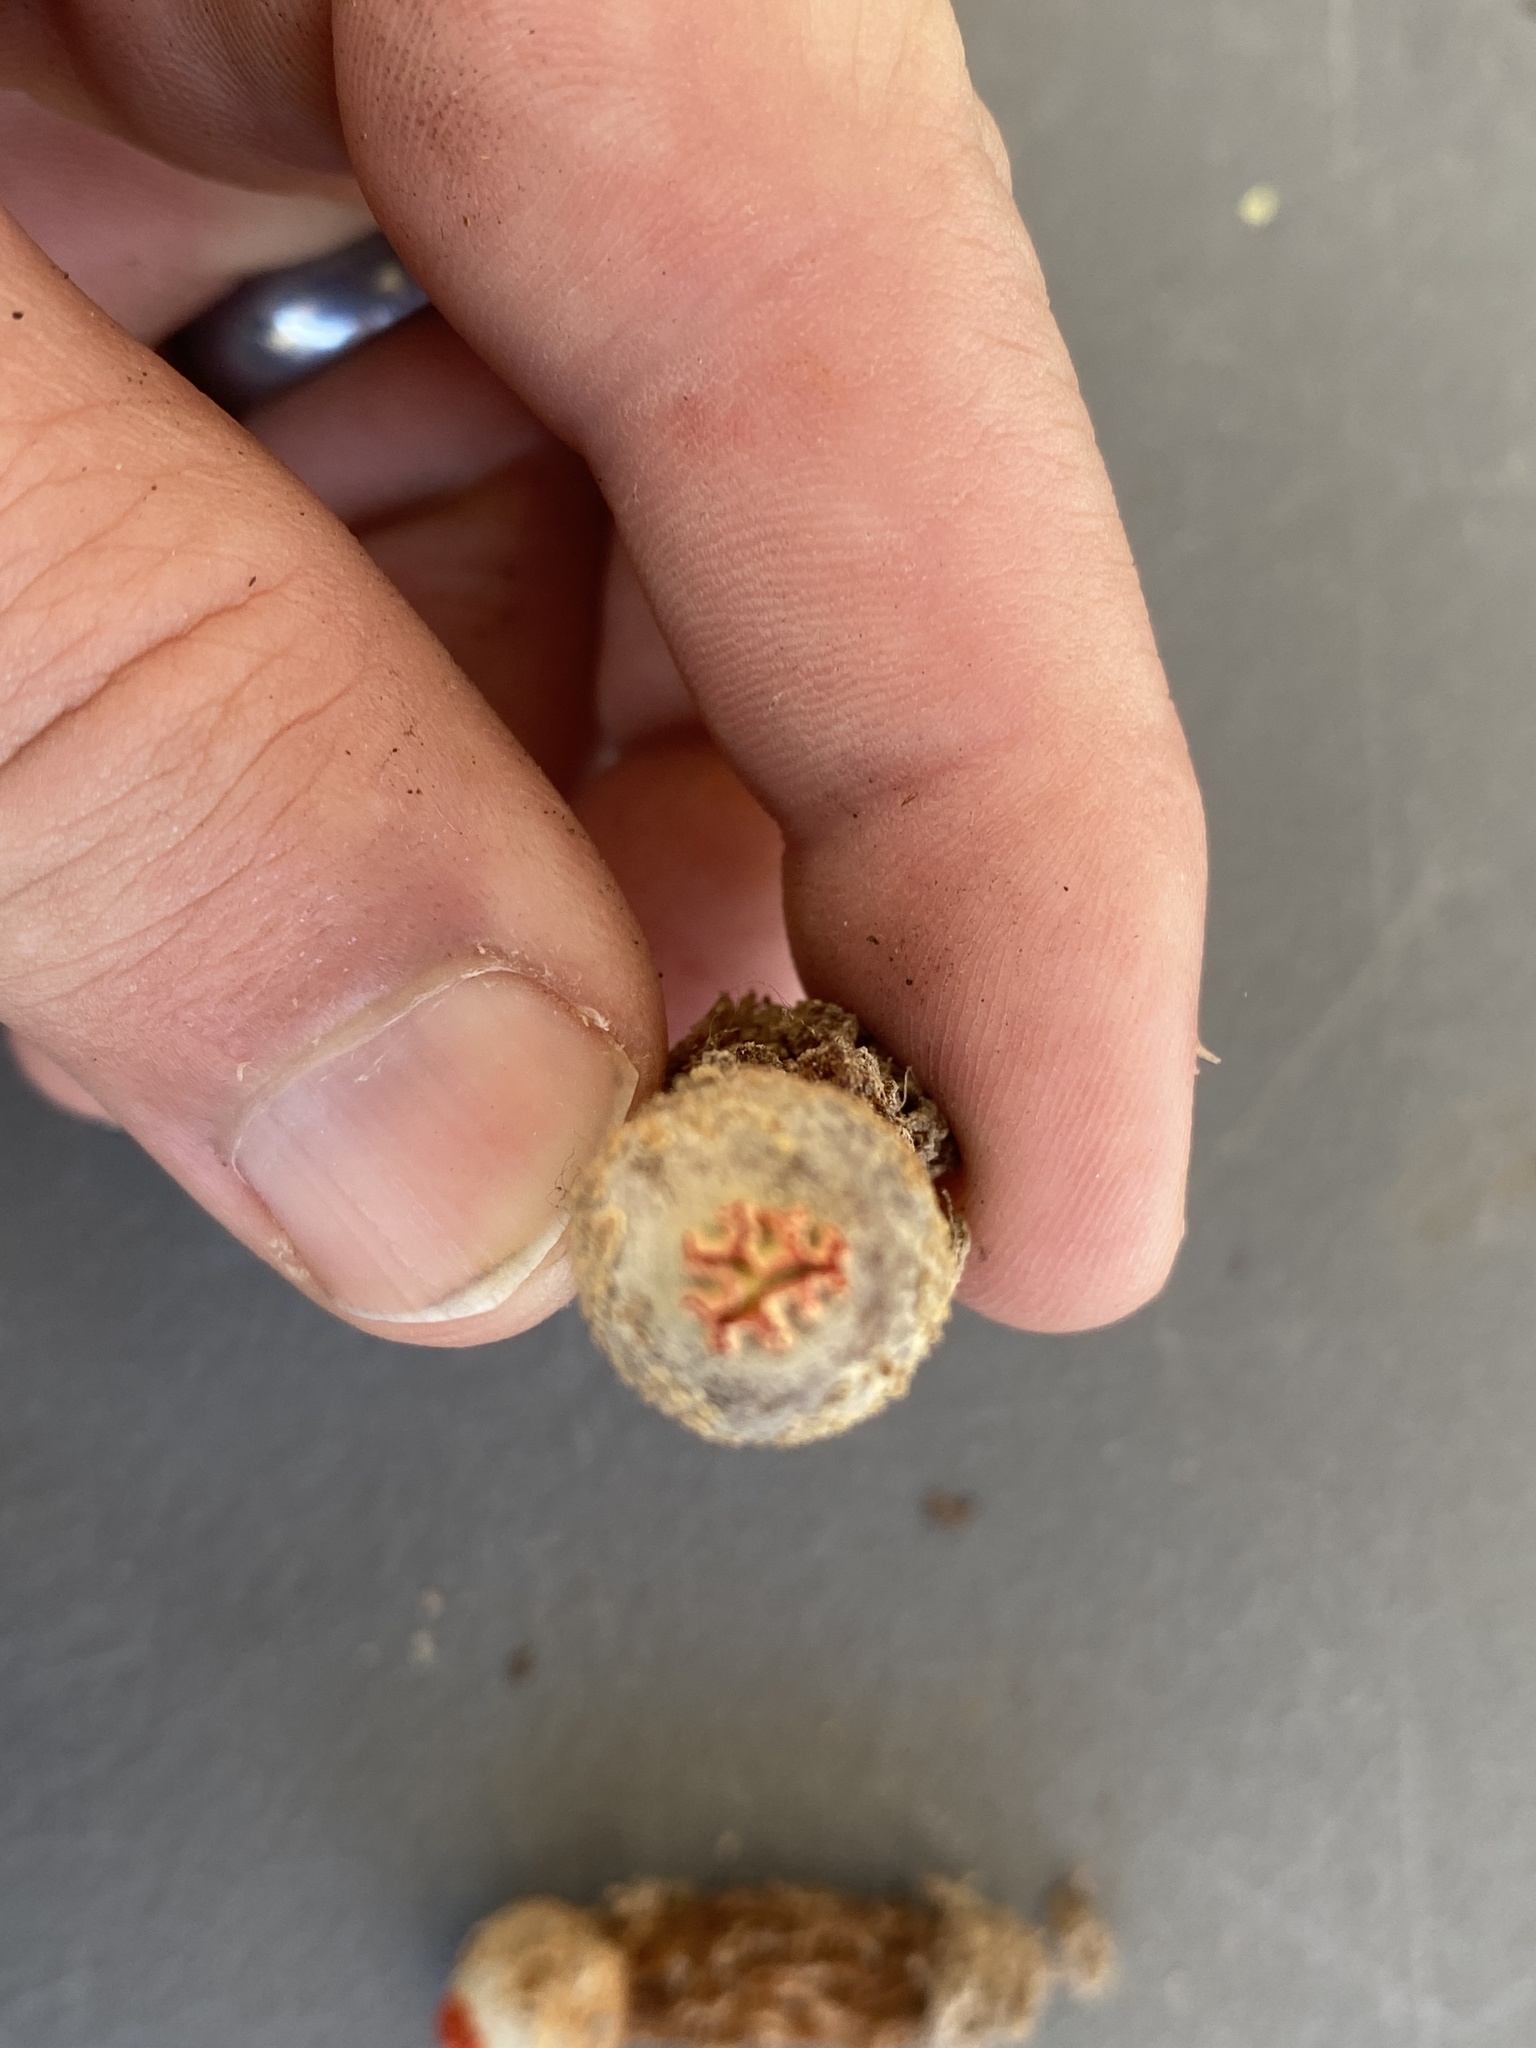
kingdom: Fungi
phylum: Basidiomycota
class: Agaricomycetes
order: Boletales
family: Calostomataceae
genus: Calostoma
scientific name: Calostoma ravenelii
